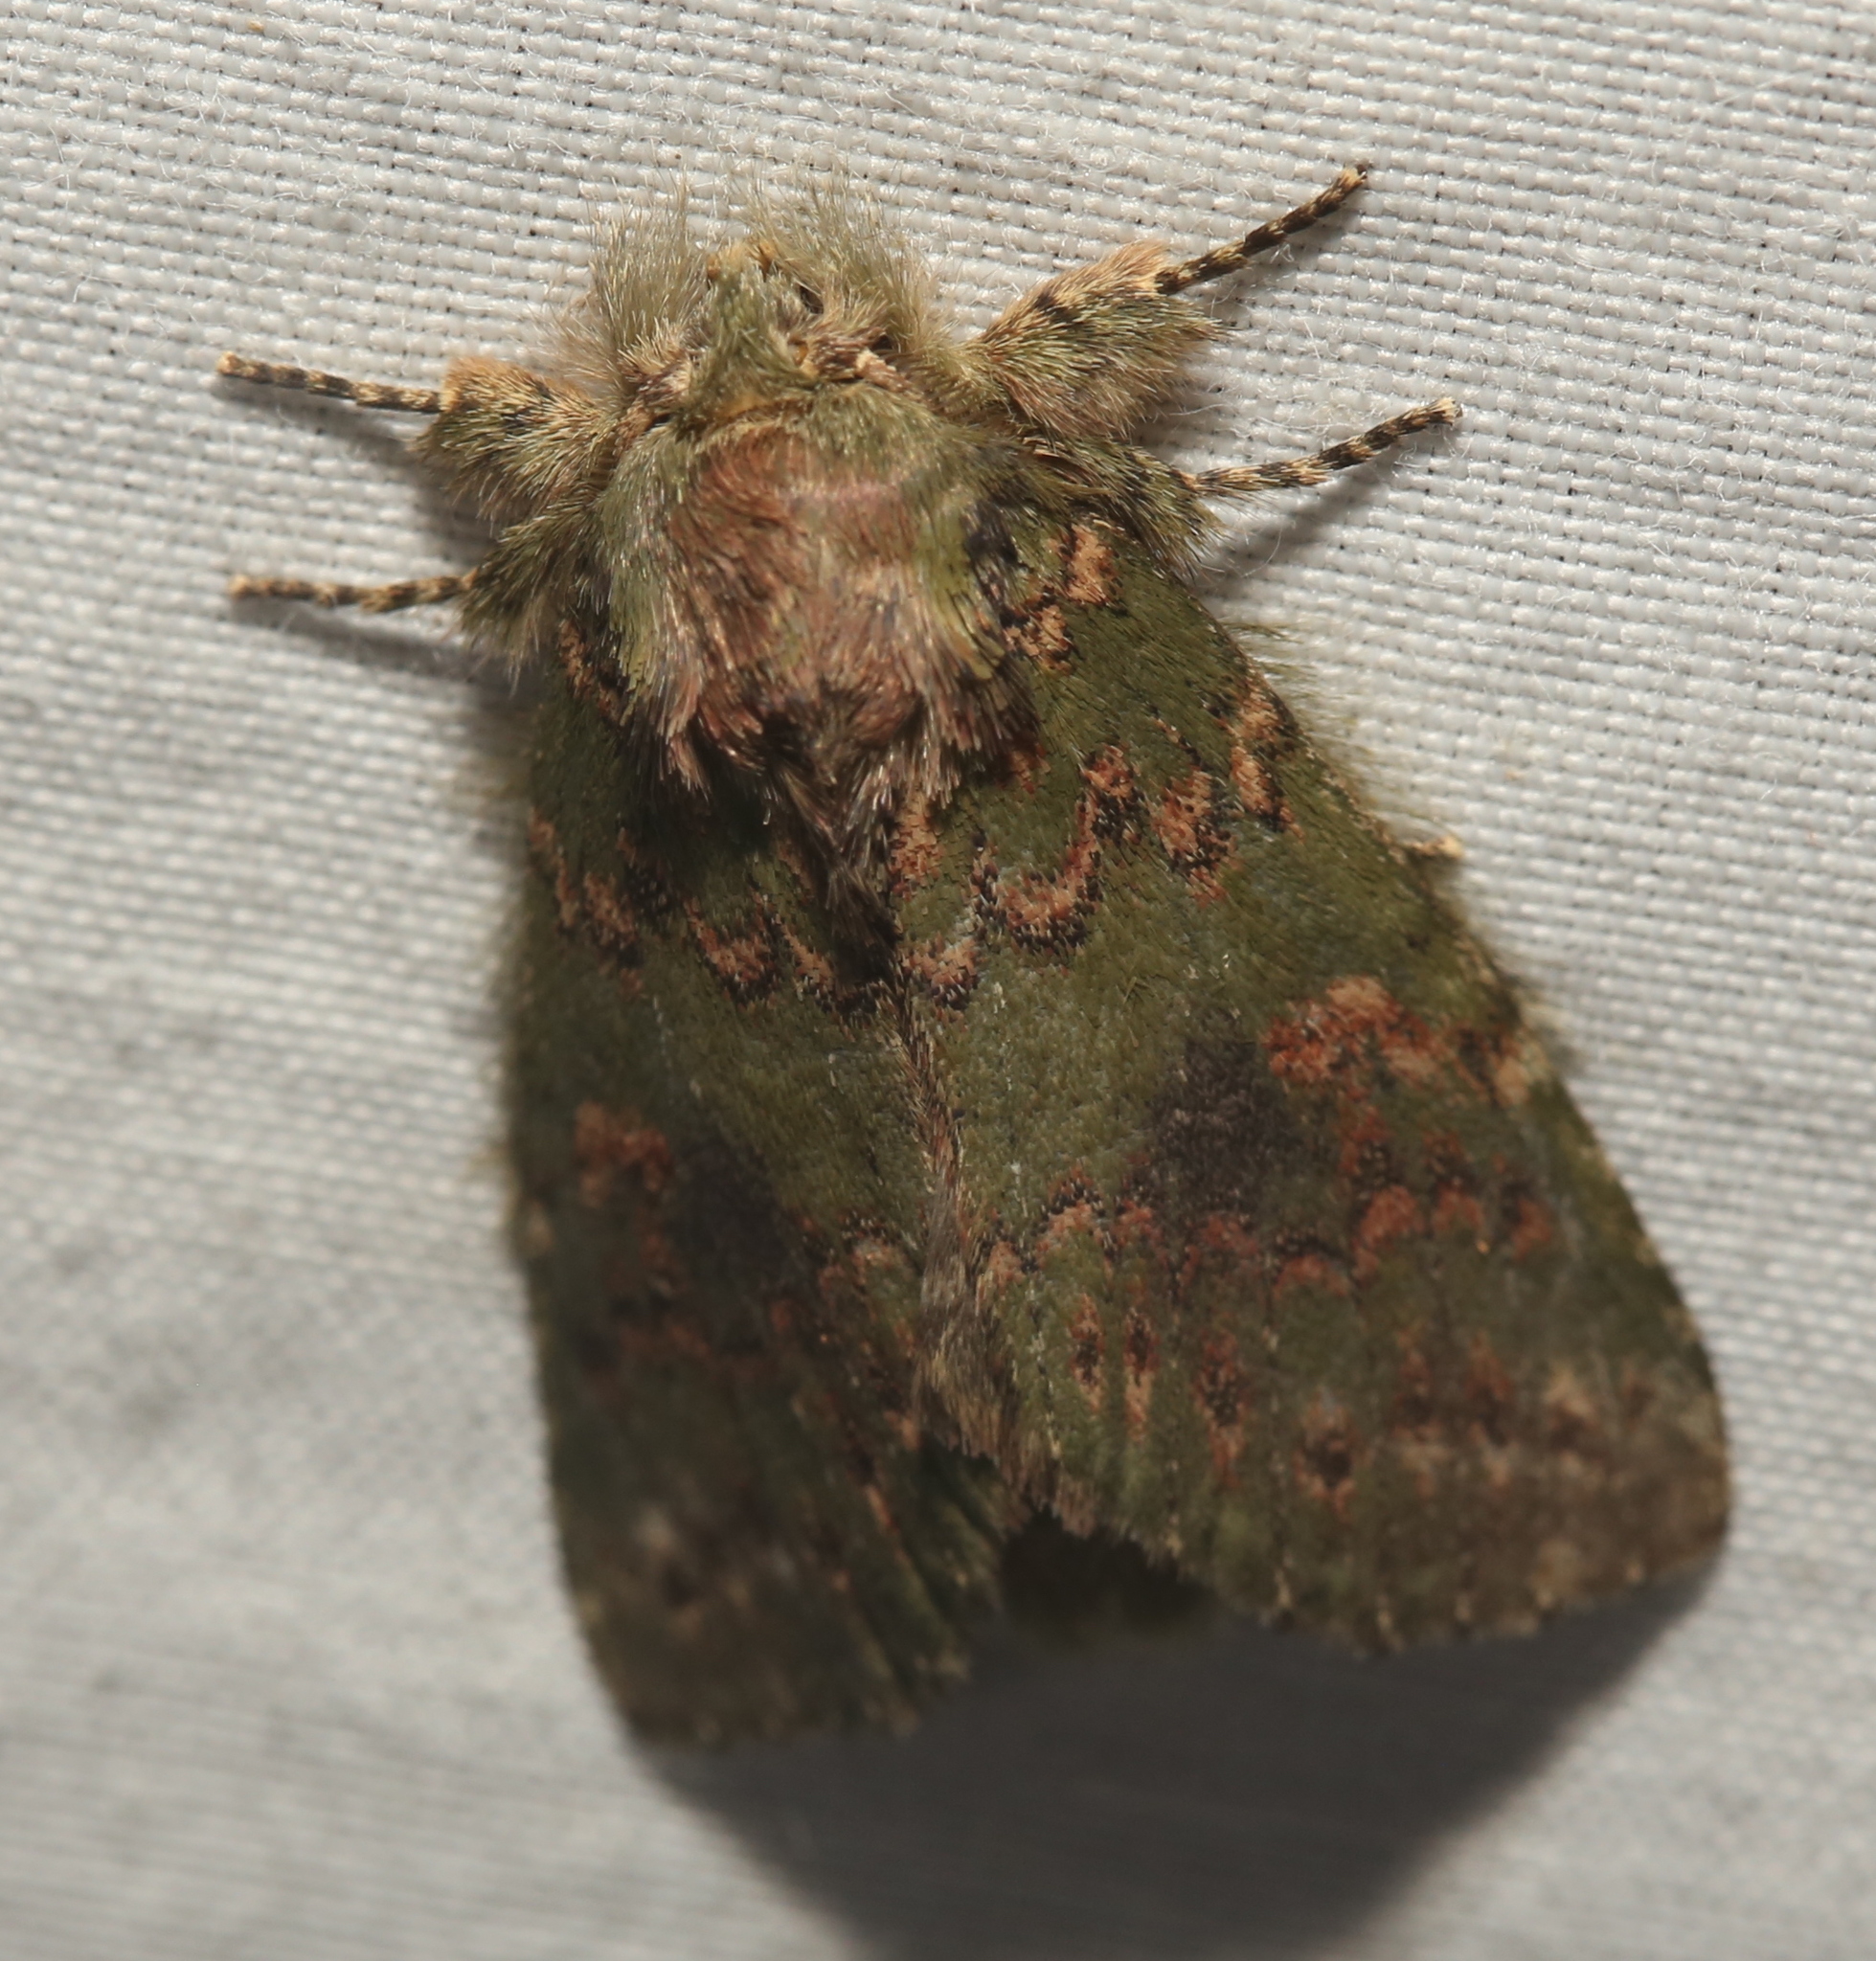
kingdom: Animalia
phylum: Arthropoda
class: Insecta
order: Lepidoptera
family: Notodontidae
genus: Disphragis
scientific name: Disphragis Cecrita biundata
